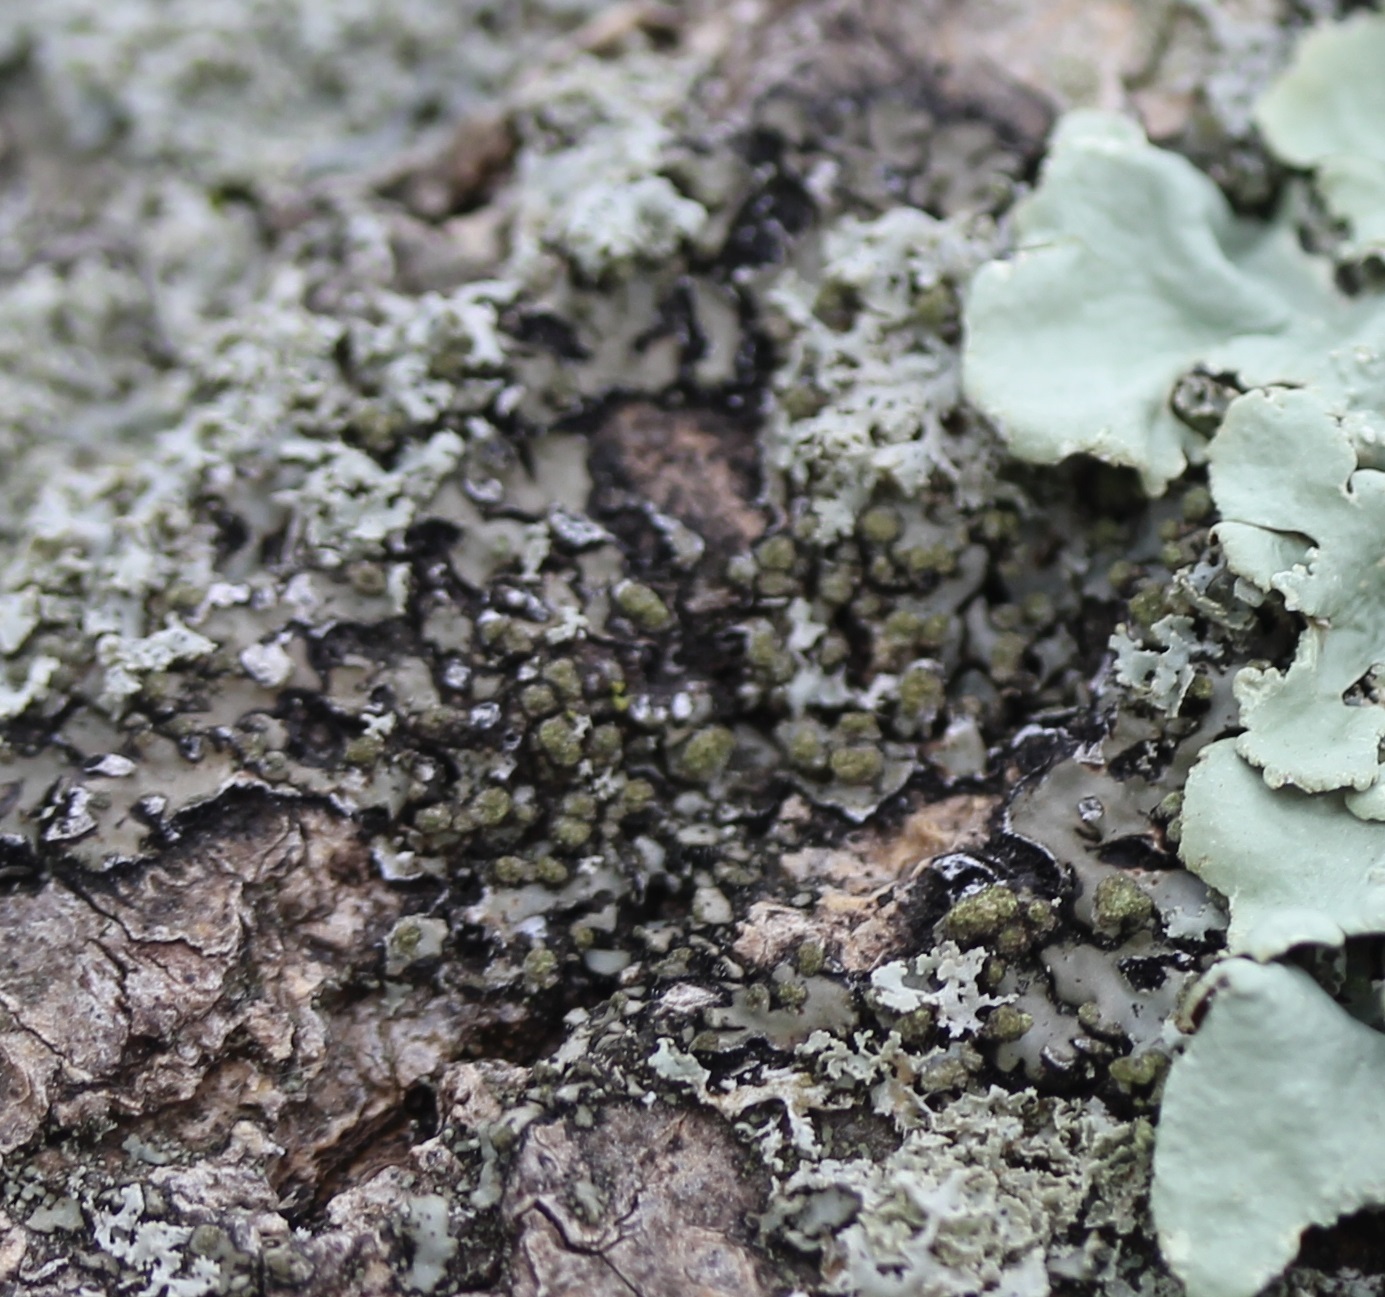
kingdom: Fungi
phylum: Ascomycota
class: Lecanoromycetes
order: Caliciales
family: Physciaceae
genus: Phaeophyscia
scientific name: Phaeophyscia pusilloides
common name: Pom-pom shadow lichen
